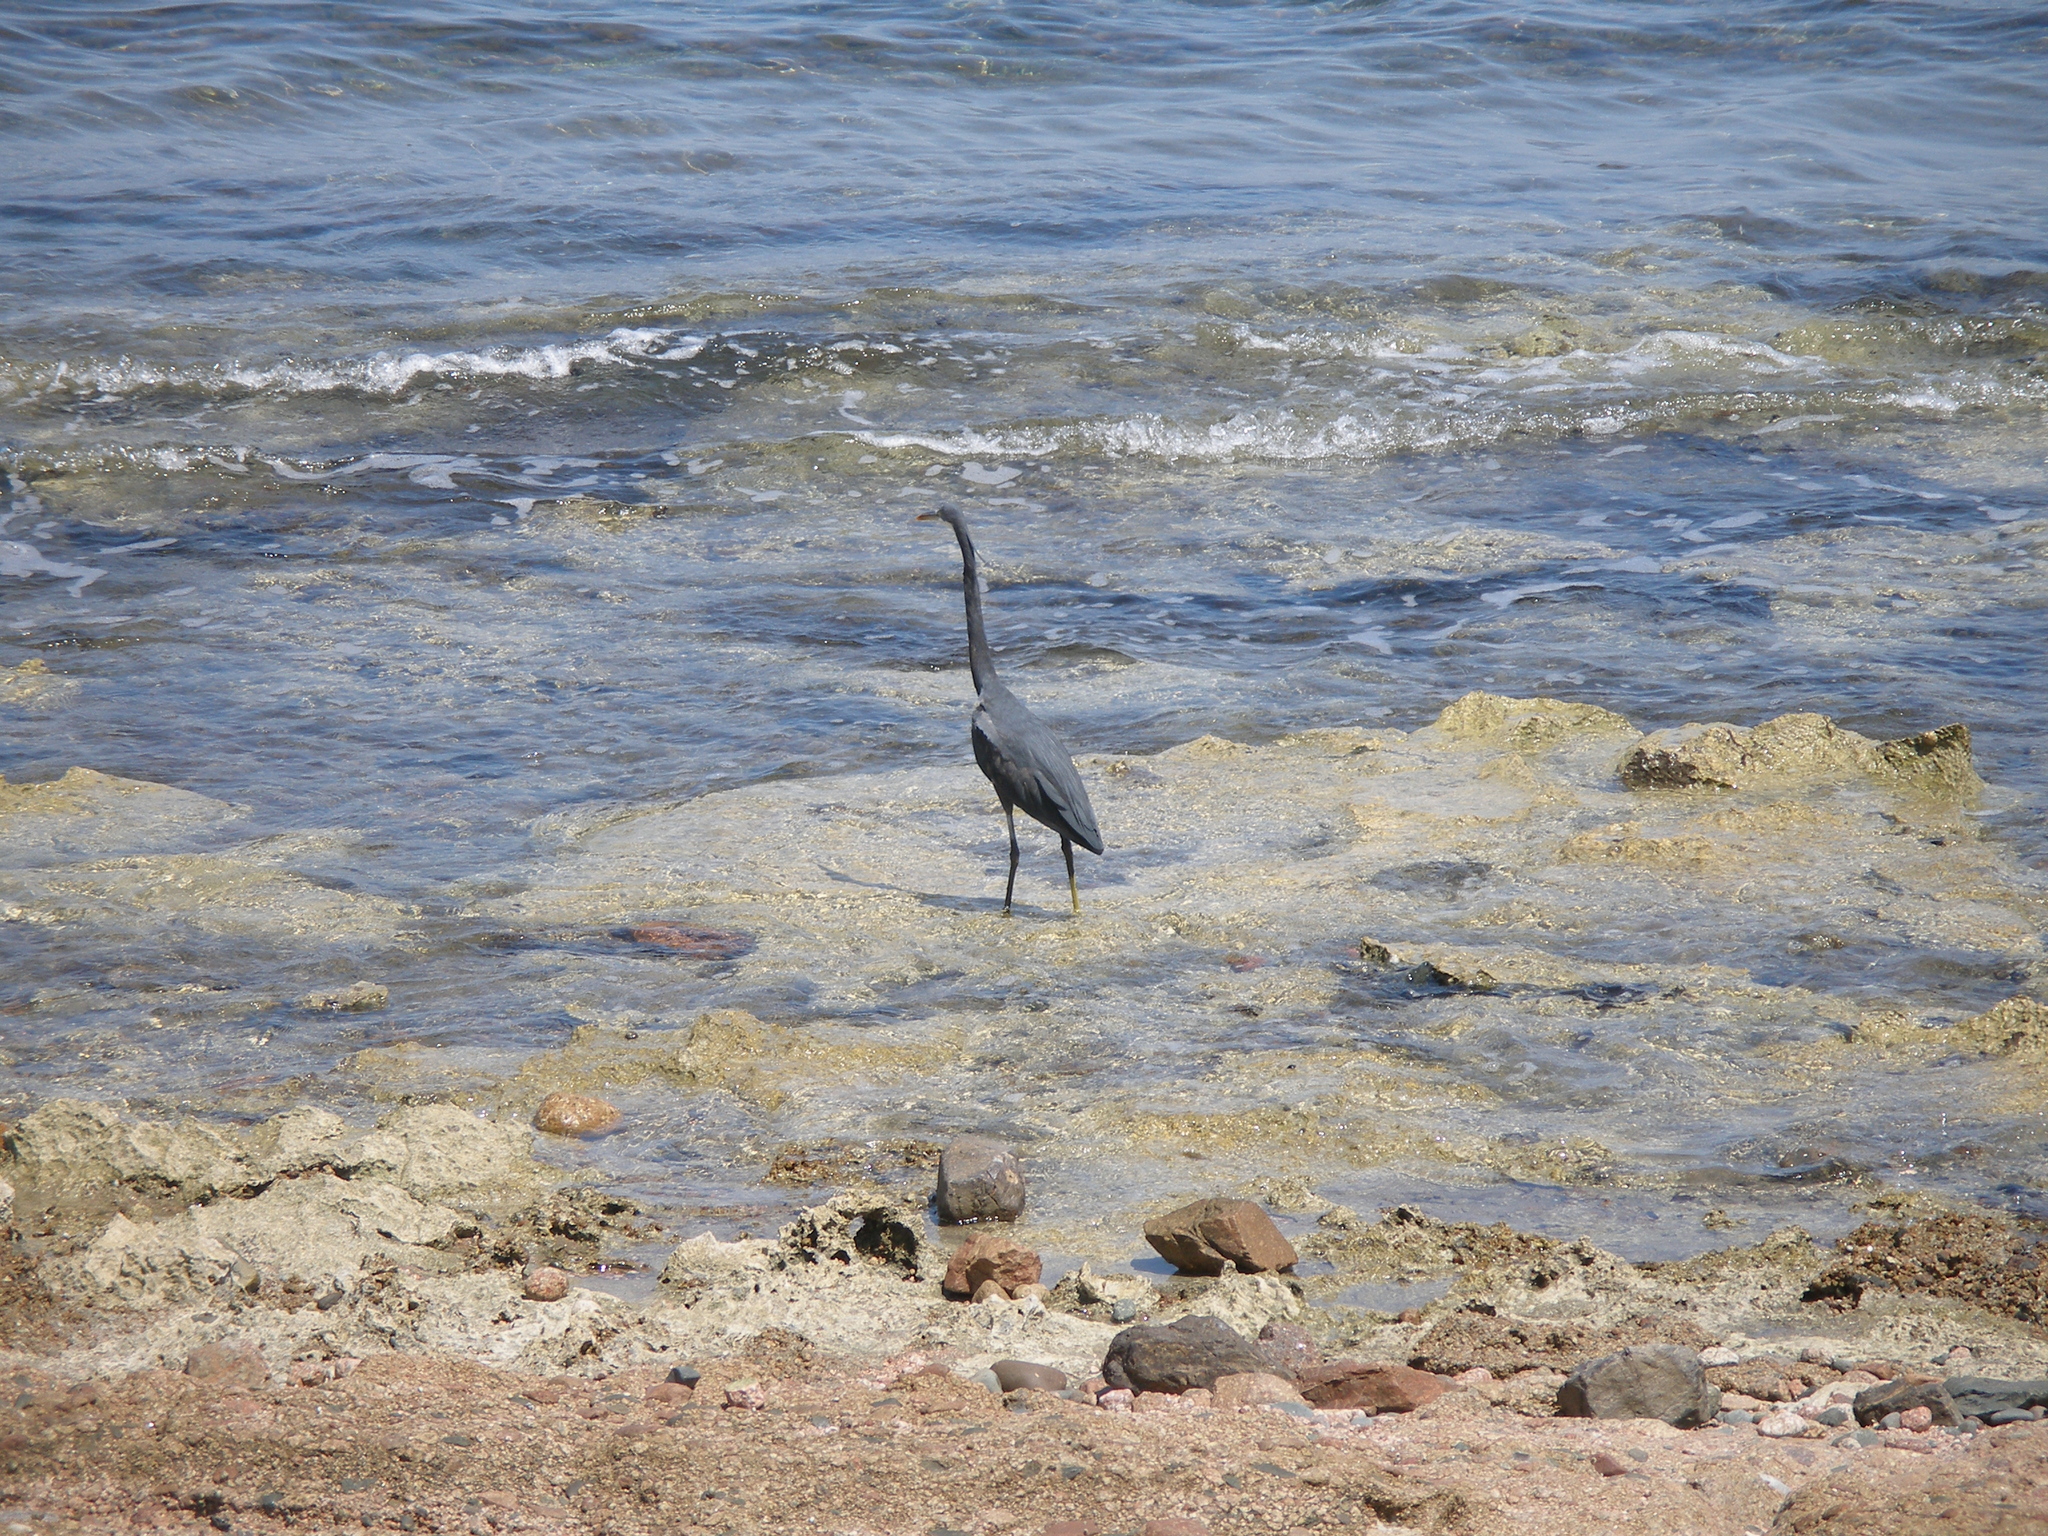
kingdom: Animalia
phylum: Chordata
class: Aves
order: Pelecaniformes
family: Ardeidae
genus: Egretta
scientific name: Egretta gularis
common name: Western reef-heron
